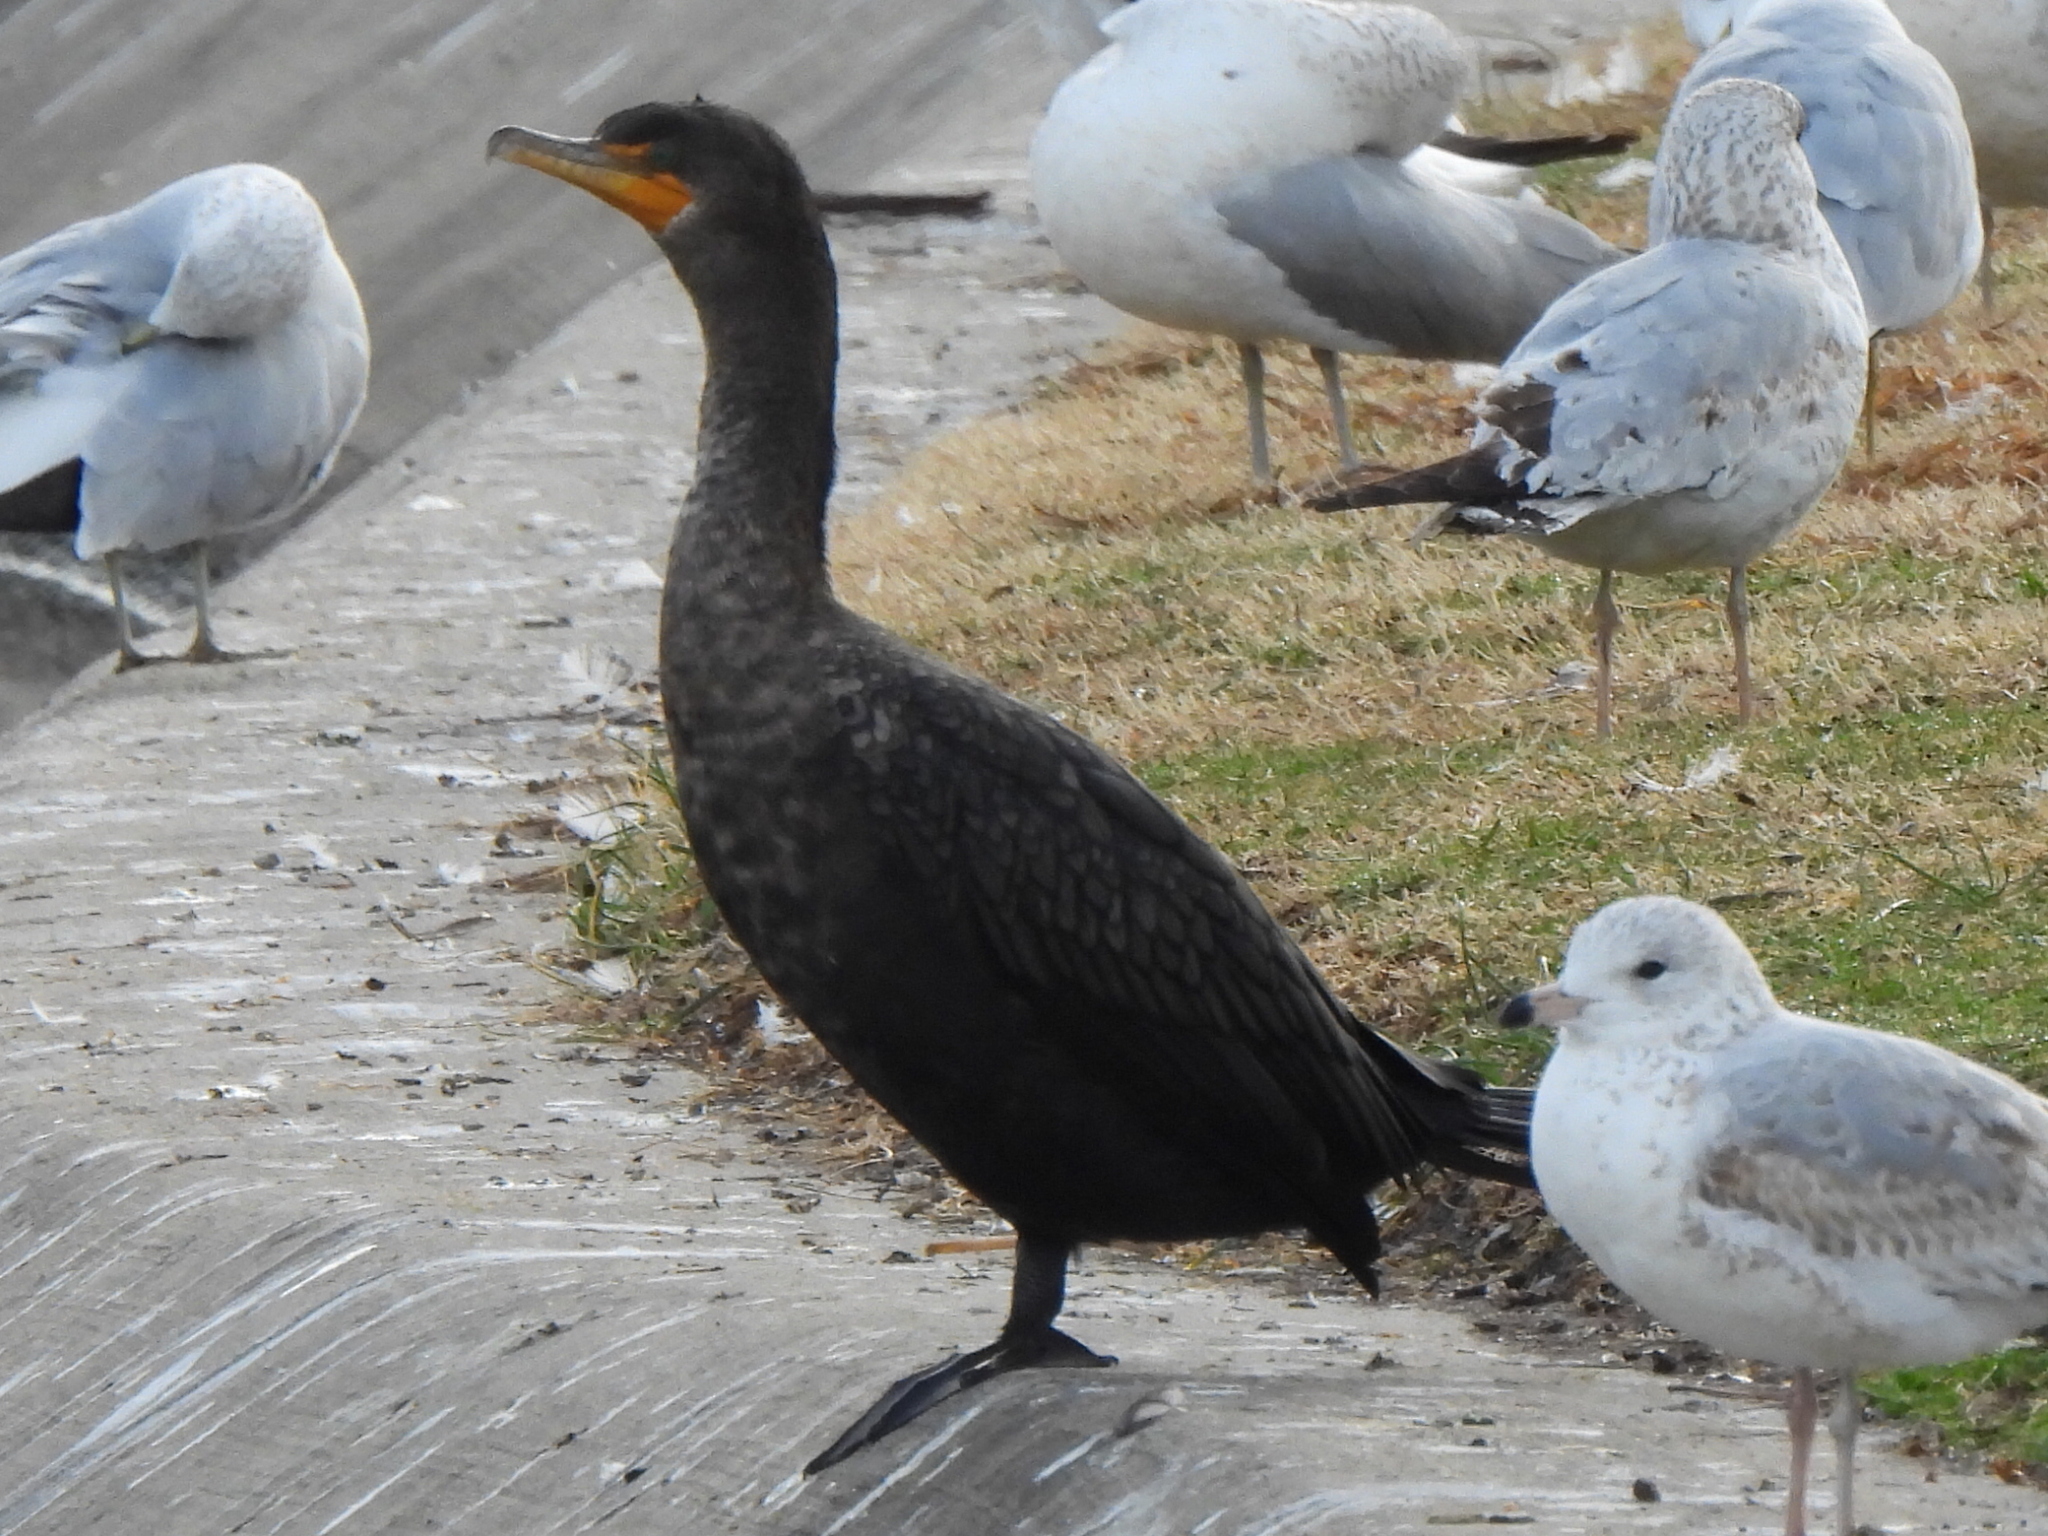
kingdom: Animalia
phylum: Chordata
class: Aves
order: Suliformes
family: Phalacrocoracidae
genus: Phalacrocorax
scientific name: Phalacrocorax auritus
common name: Double-crested cormorant
